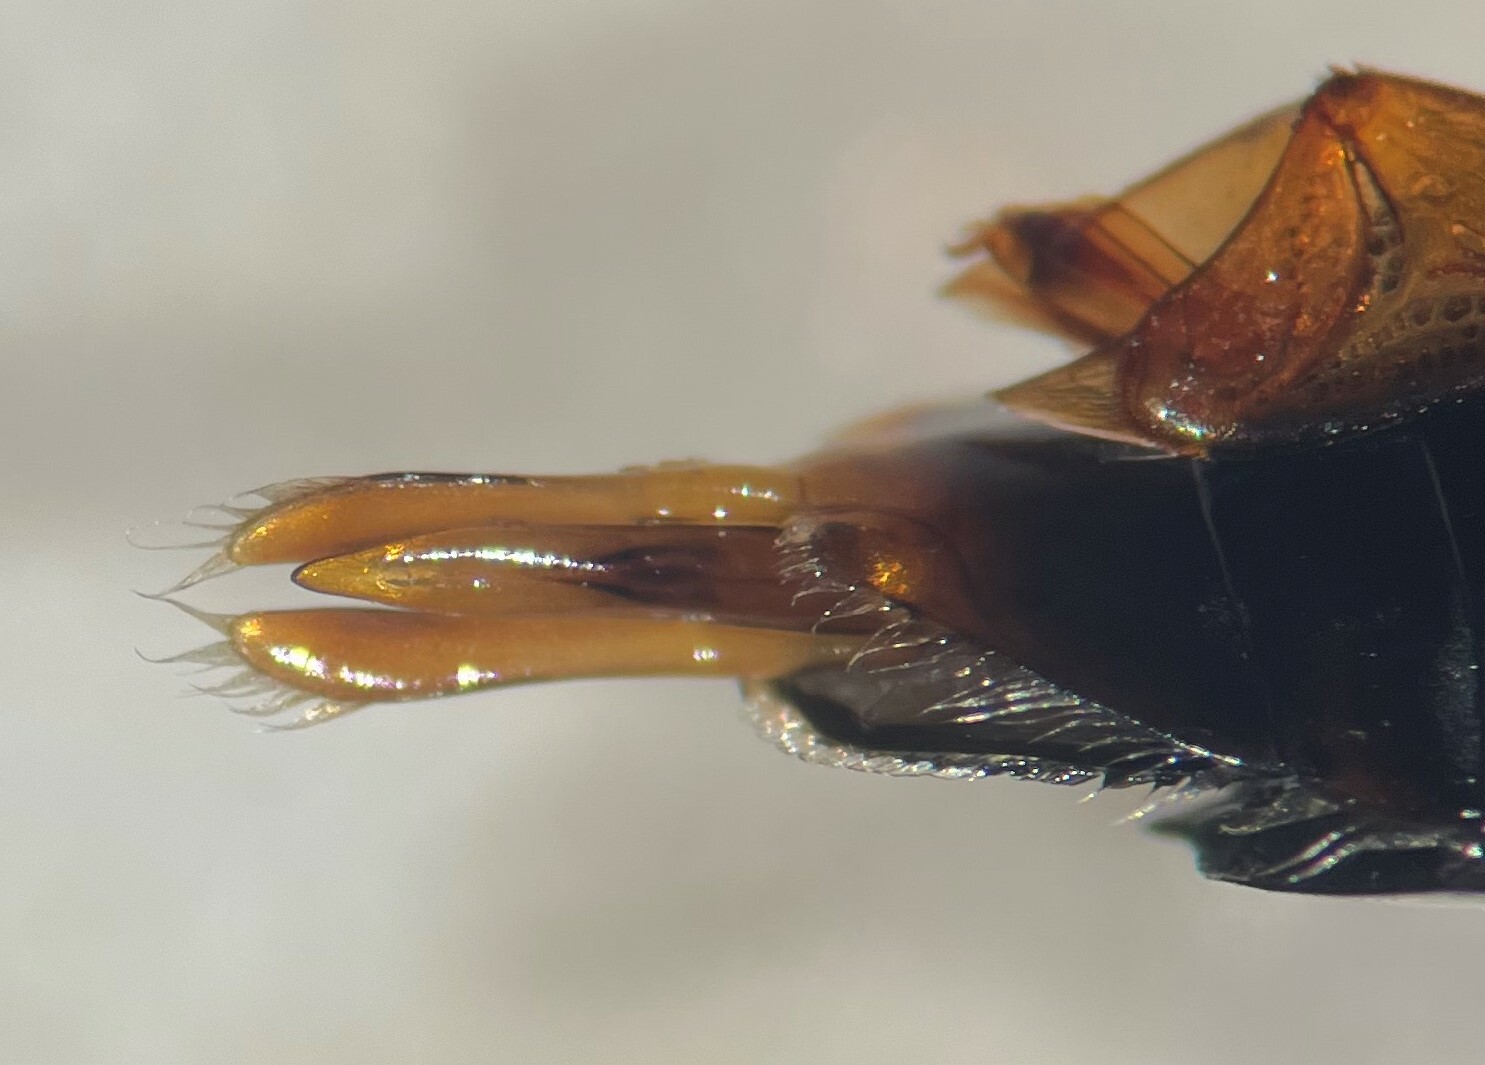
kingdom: Animalia
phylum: Arthropoda
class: Insecta
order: Coleoptera
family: Gyrinidae
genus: Dineutus
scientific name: Dineutus nigrior
